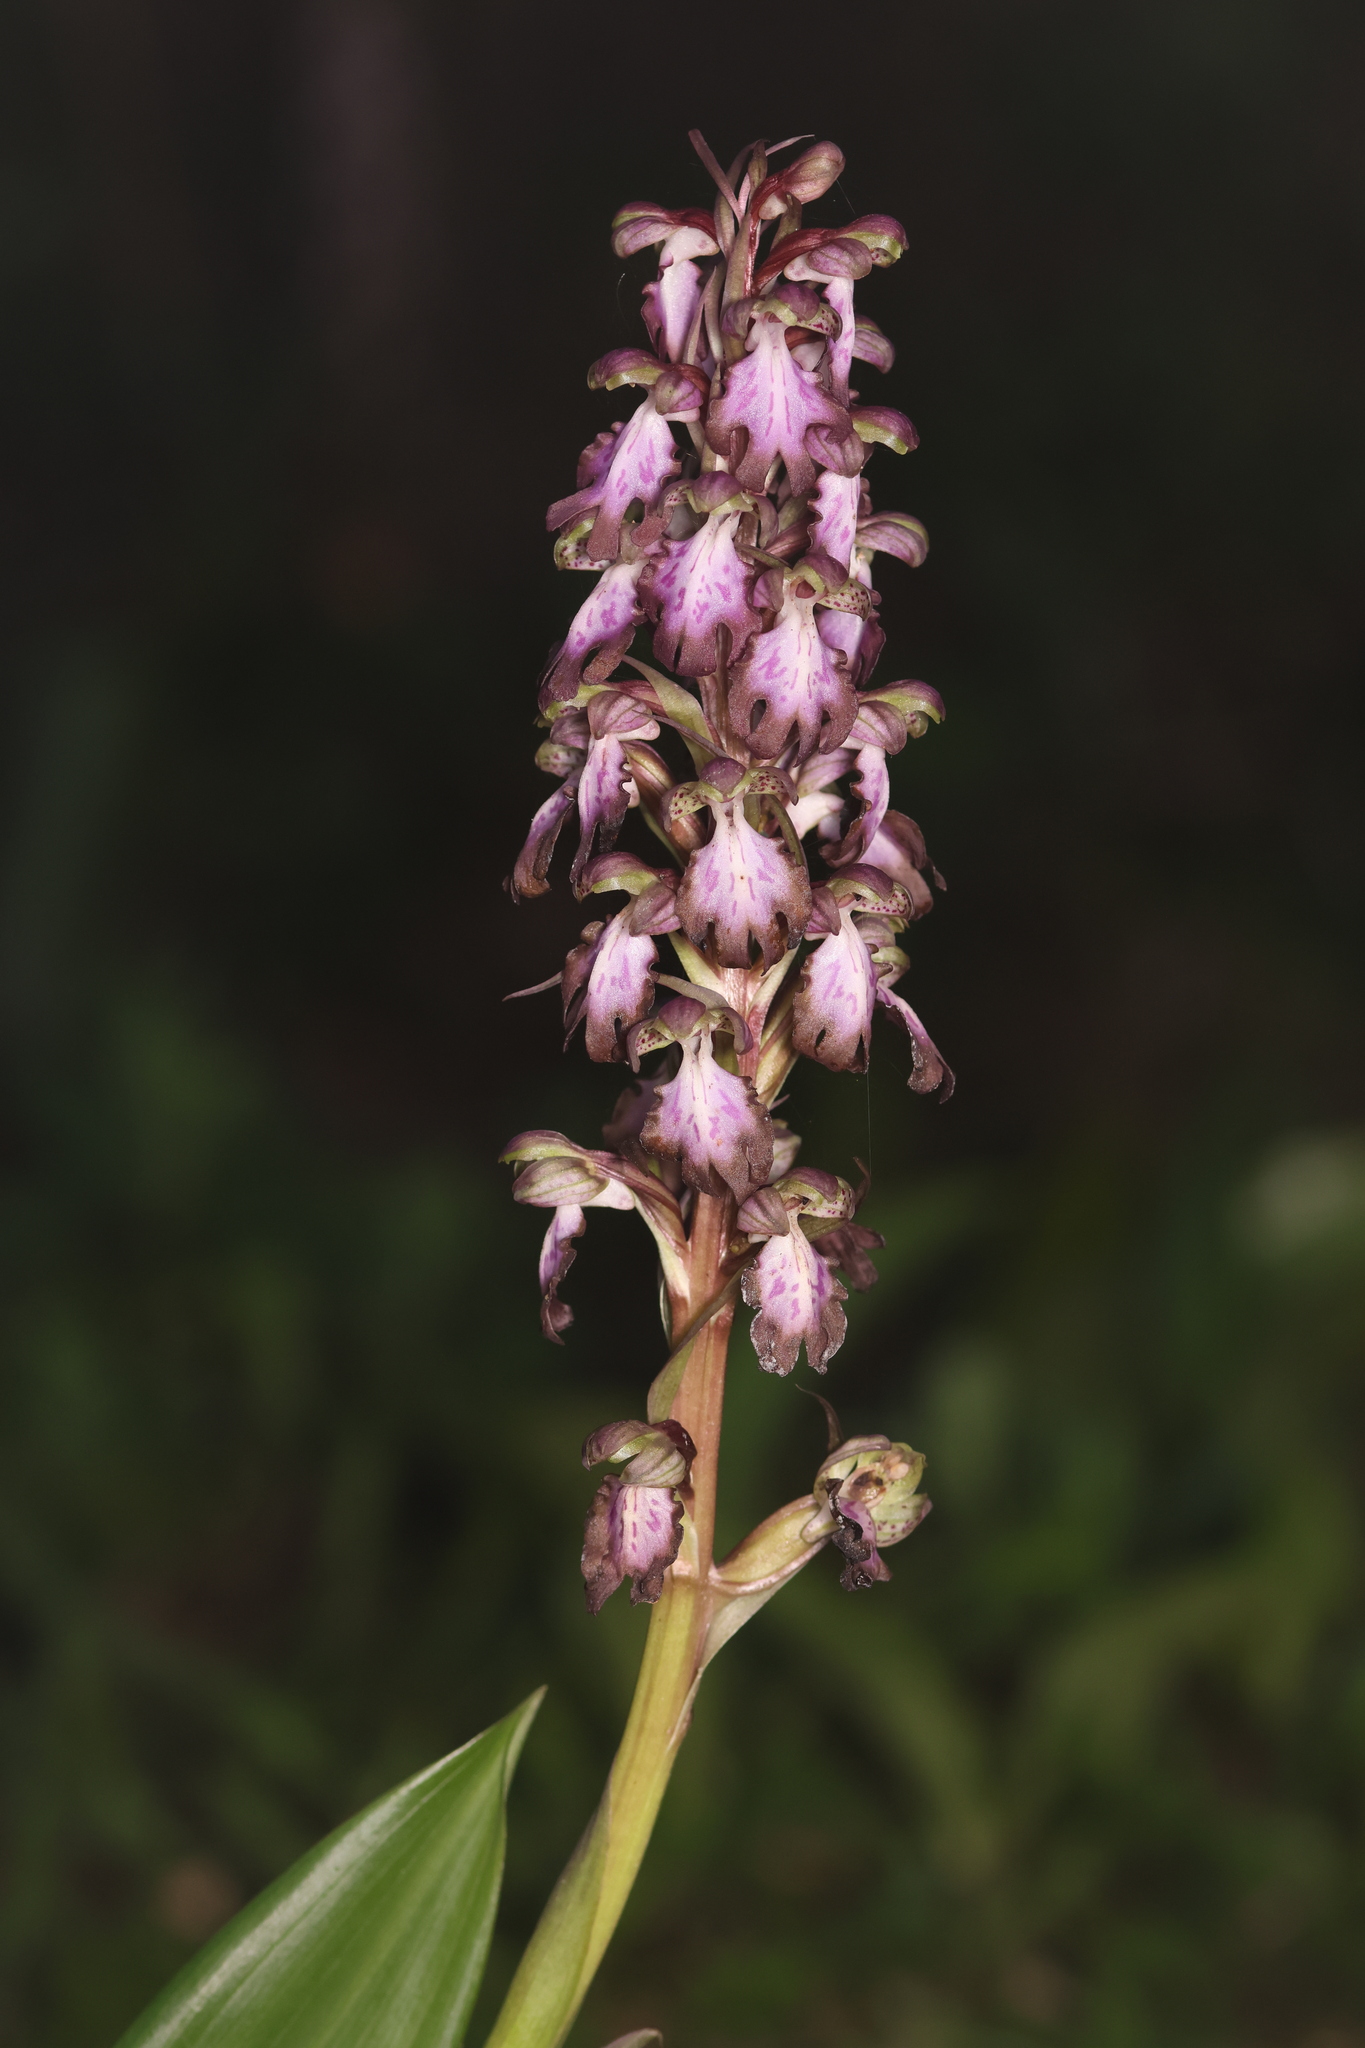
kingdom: Plantae
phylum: Tracheophyta
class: Liliopsida
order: Asparagales
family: Orchidaceae
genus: Himantoglossum
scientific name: Himantoglossum robertianum
